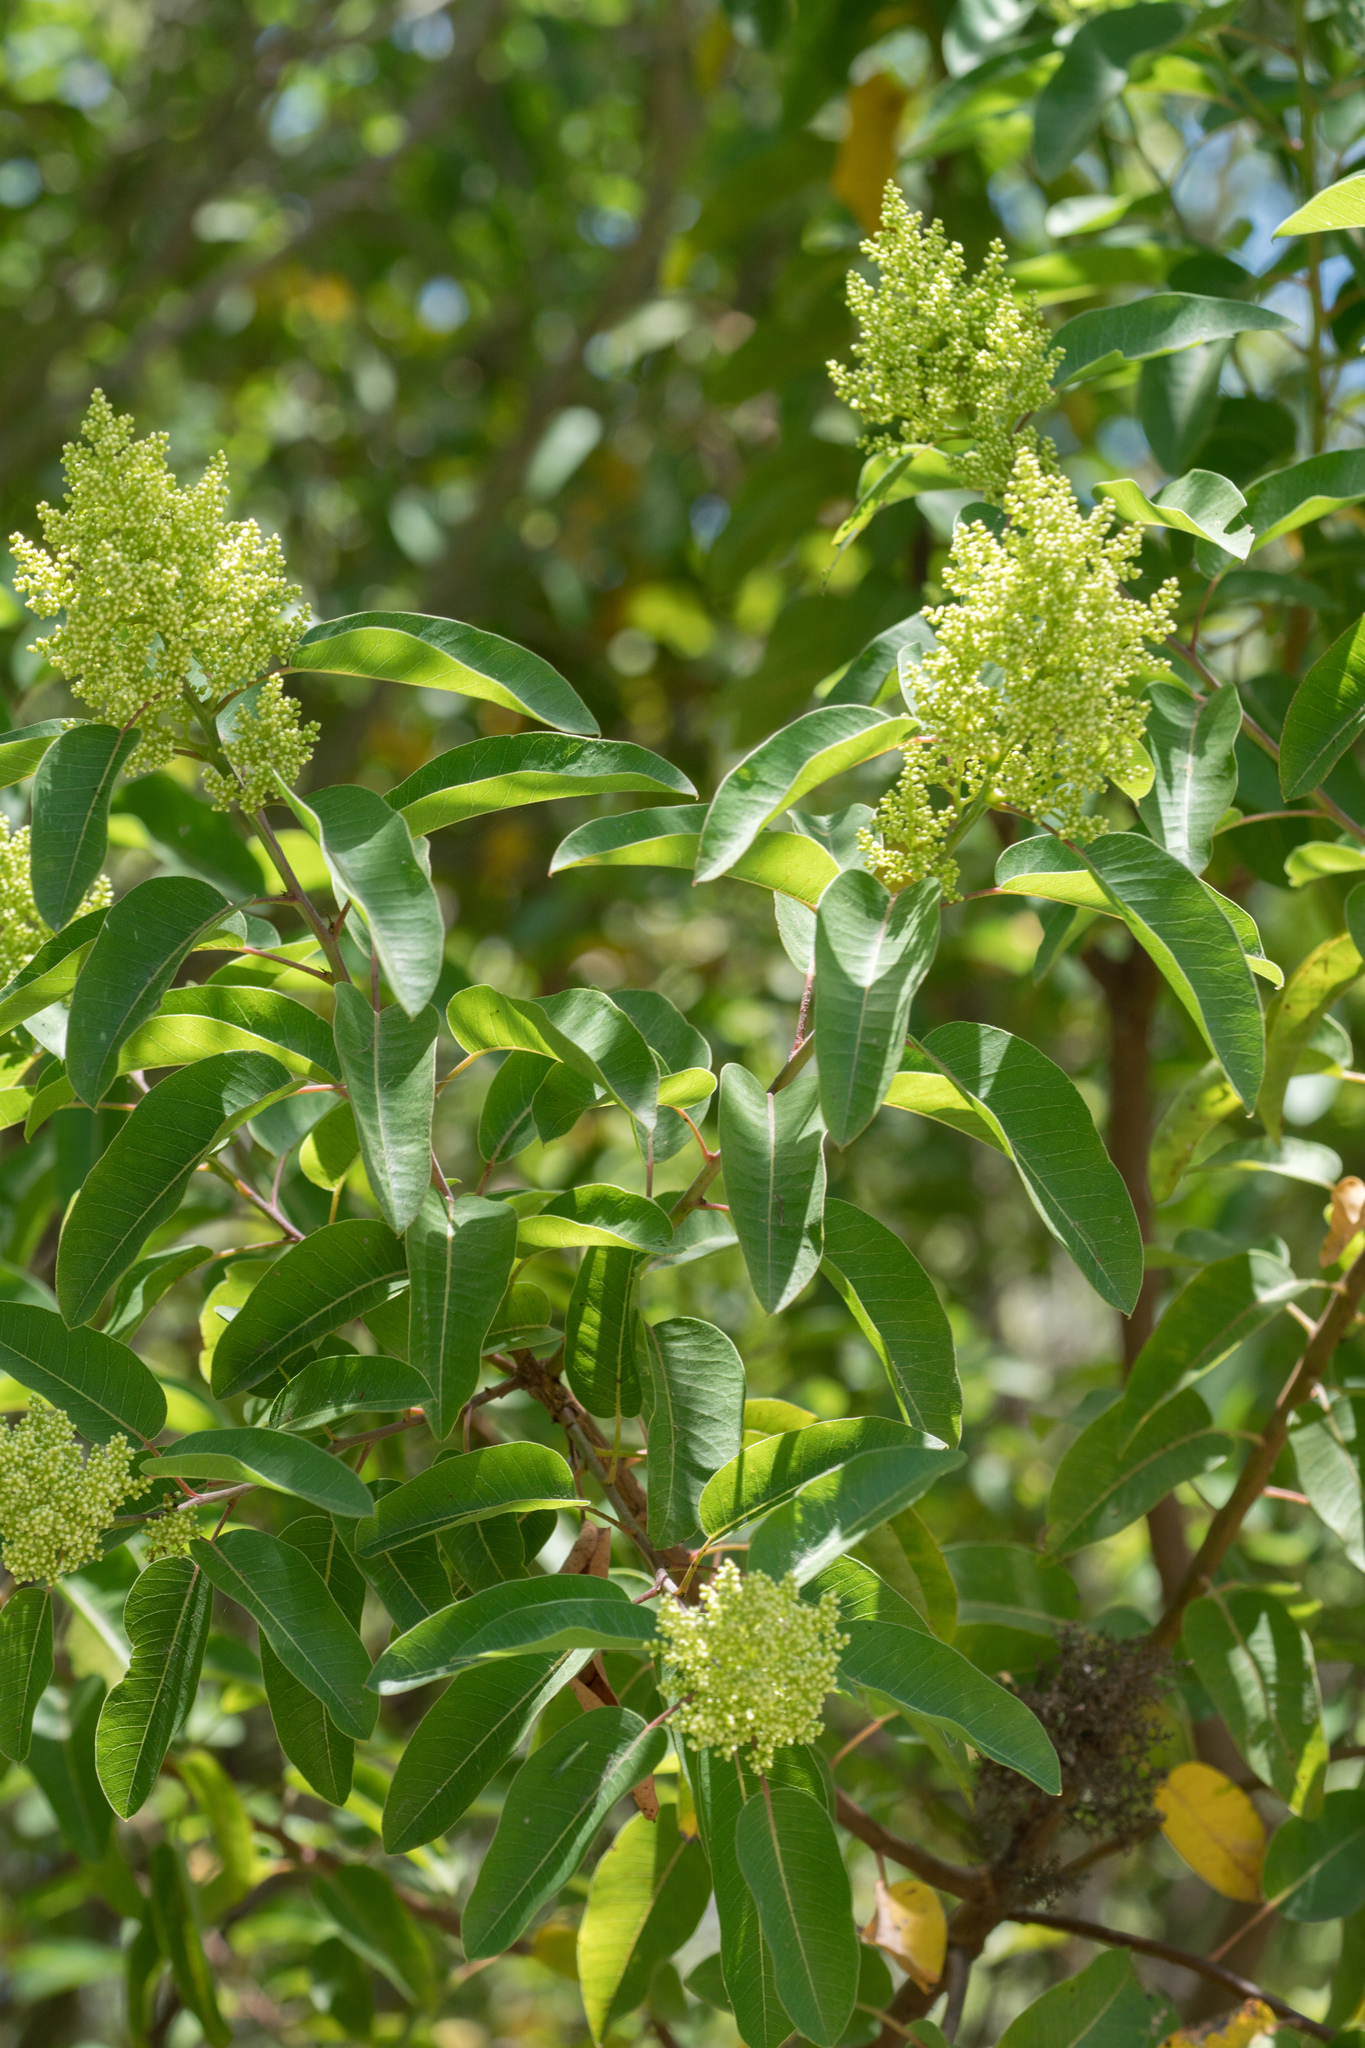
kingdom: Plantae
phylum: Tracheophyta
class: Magnoliopsida
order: Sapindales
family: Anacardiaceae
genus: Malosma
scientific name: Malosma laurina
